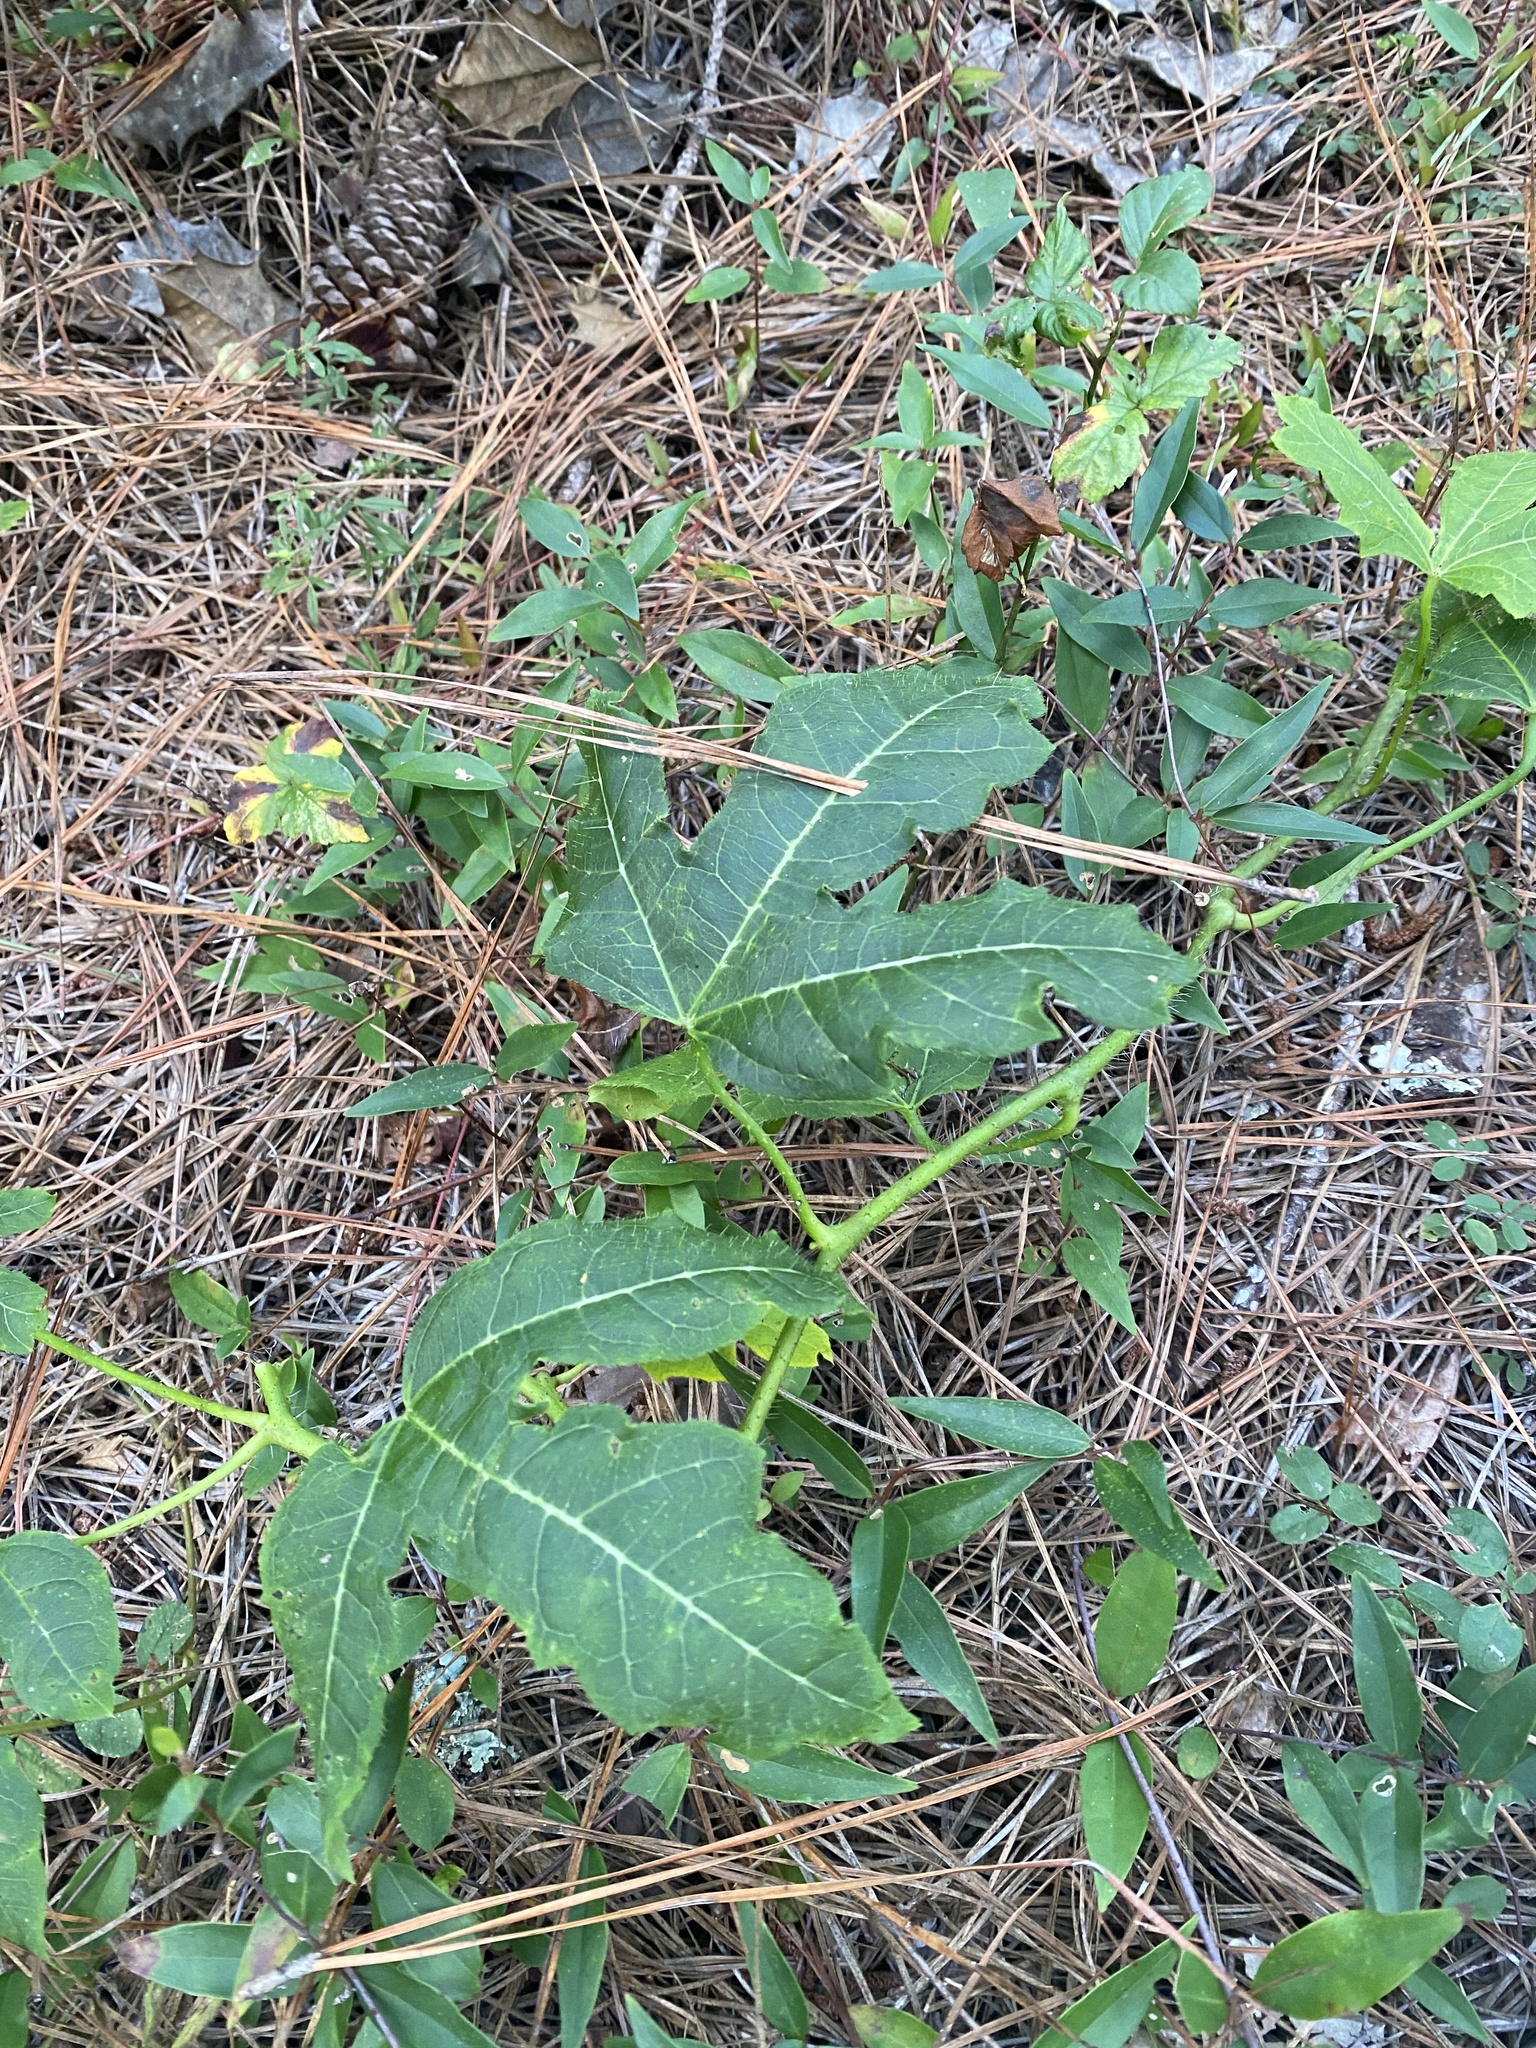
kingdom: Plantae
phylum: Tracheophyta
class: Magnoliopsida
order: Malpighiales
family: Euphorbiaceae
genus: Cnidoscolus
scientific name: Cnidoscolus stimulosus
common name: Bull-nettle
